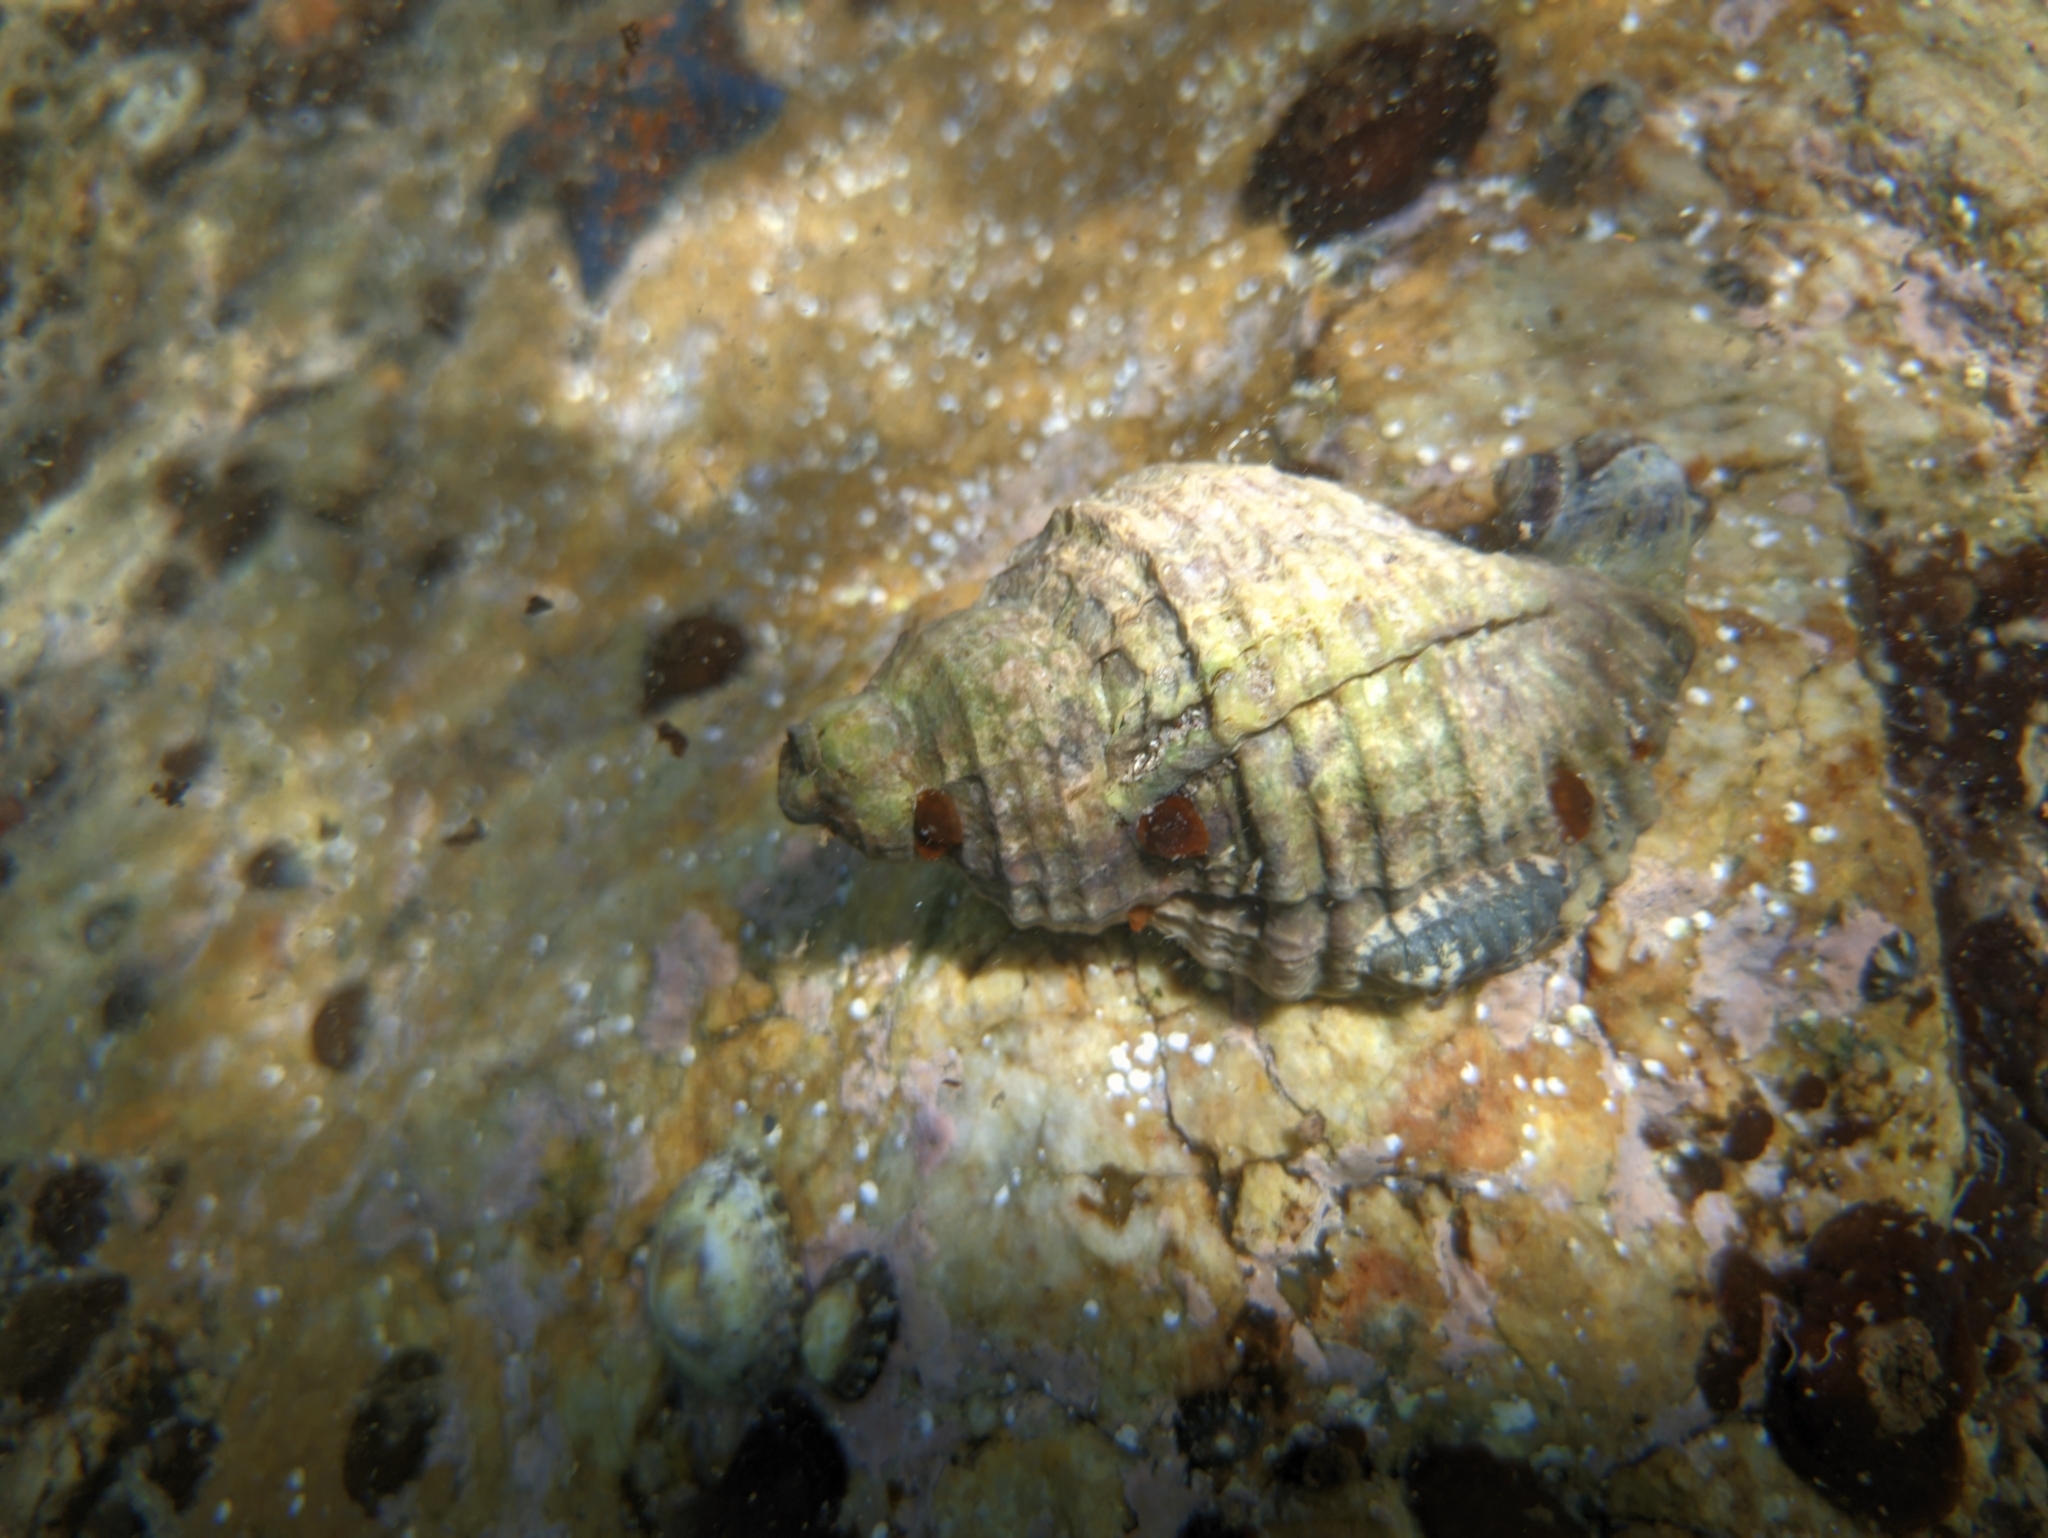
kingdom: Animalia
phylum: Mollusca
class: Gastropoda
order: Neogastropoda
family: Muricidae
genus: Nucella
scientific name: Nucella heyseana
